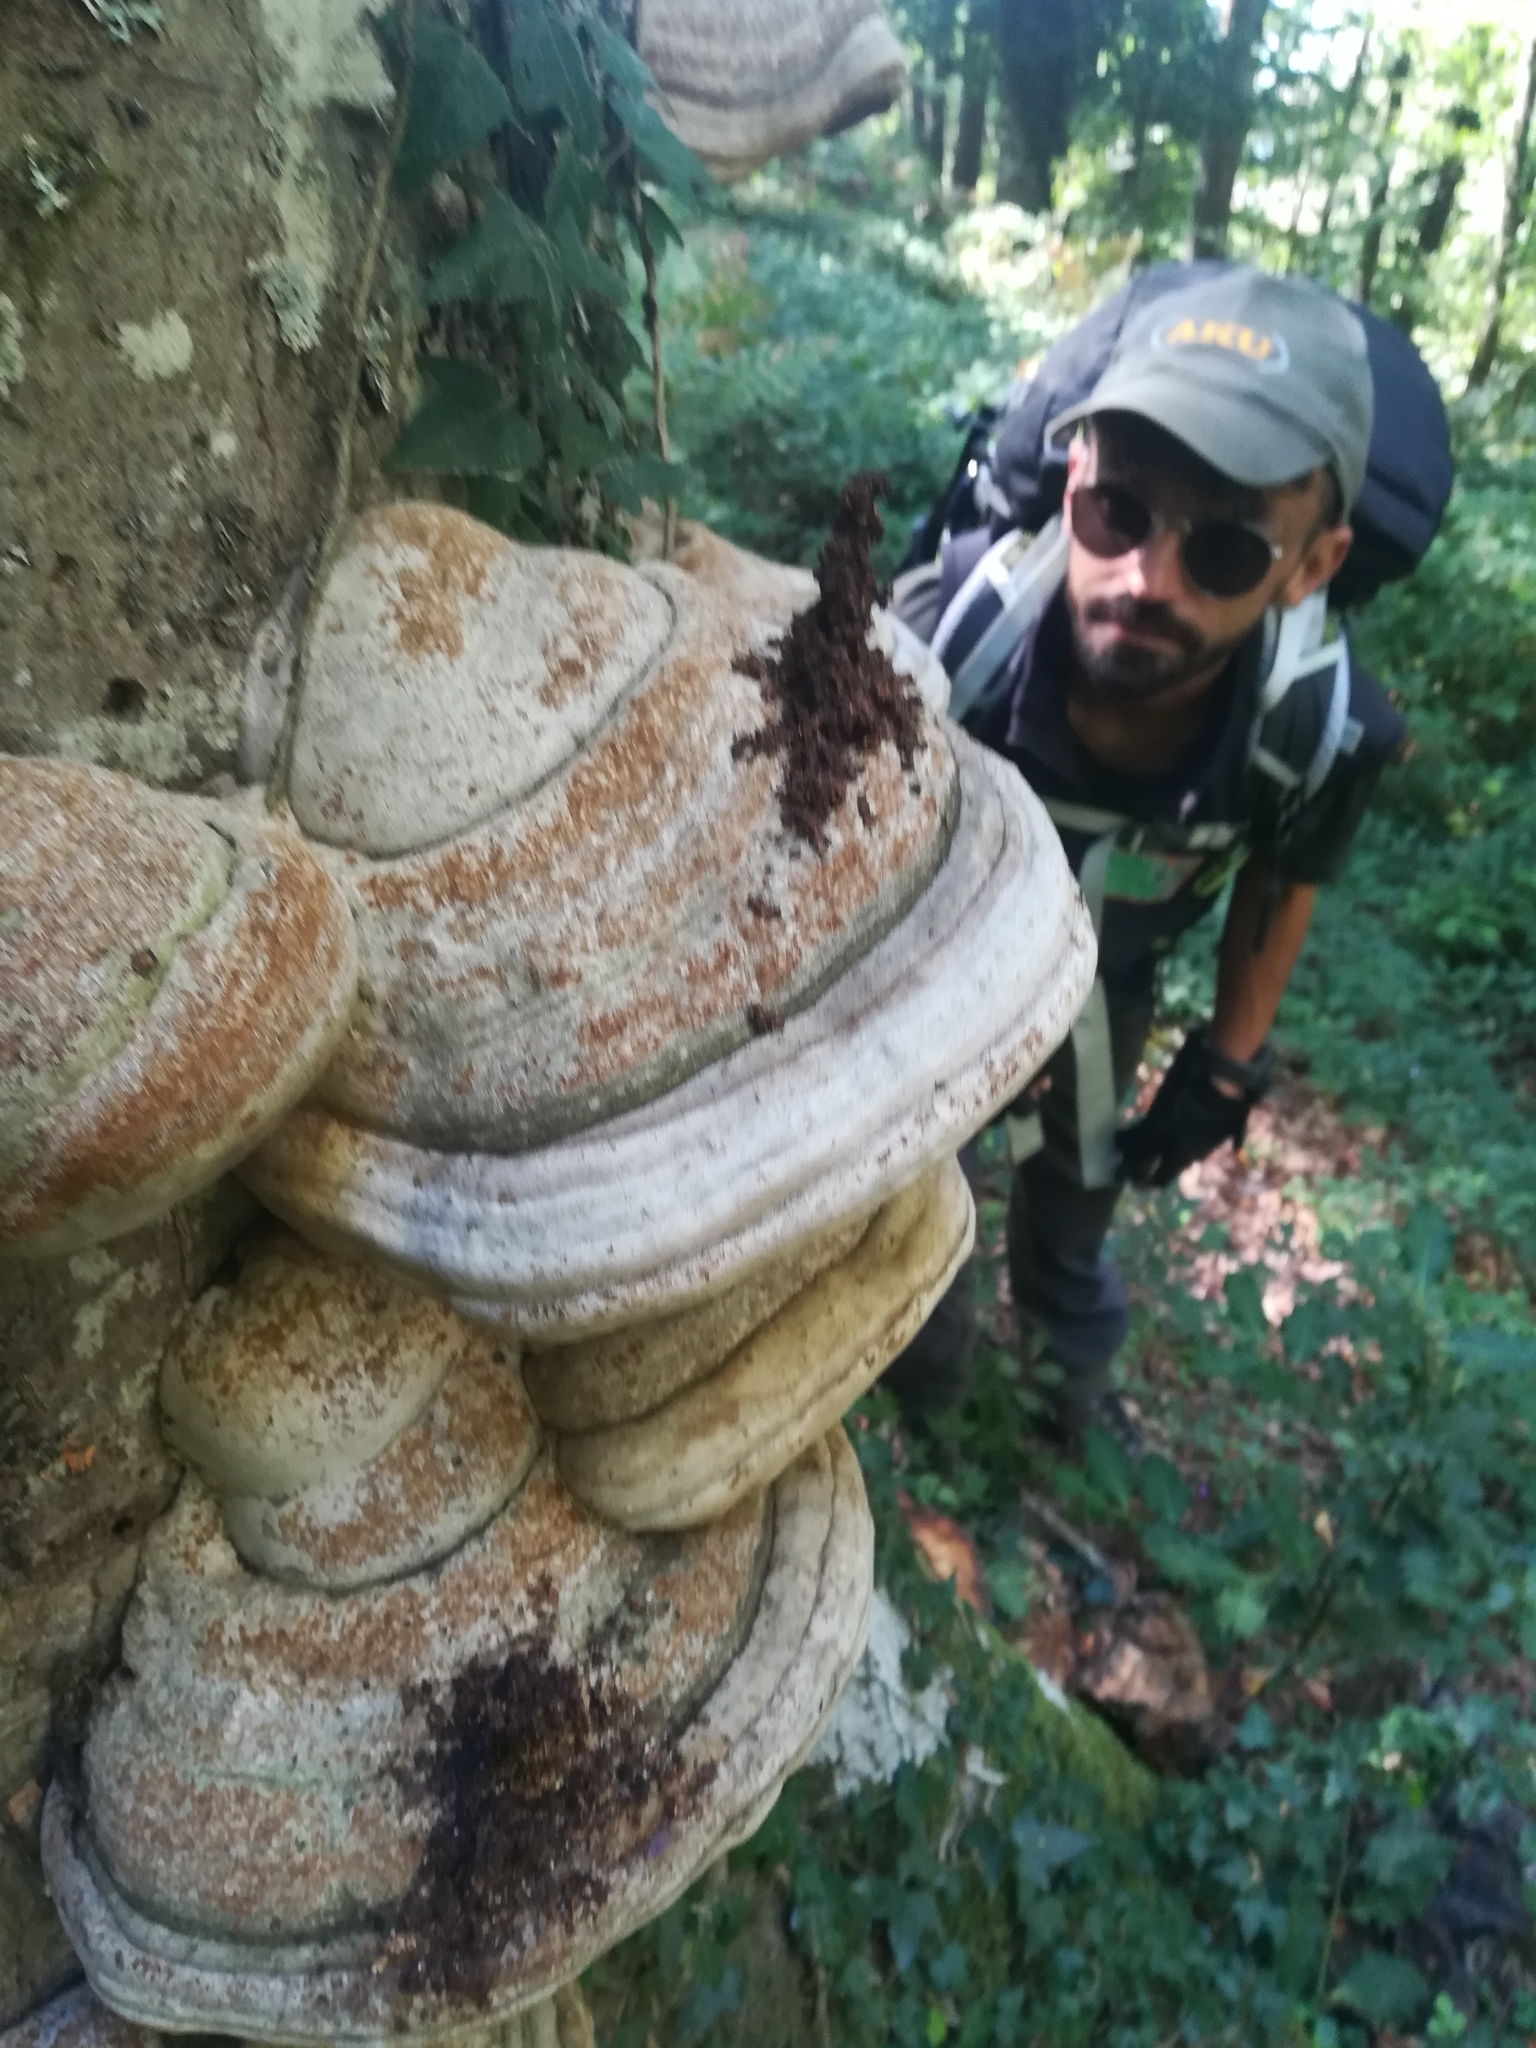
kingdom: Fungi
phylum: Basidiomycota
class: Agaricomycetes
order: Polyporales
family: Polyporaceae
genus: Fomes
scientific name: Fomes fomentarius
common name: Hoof fungus
